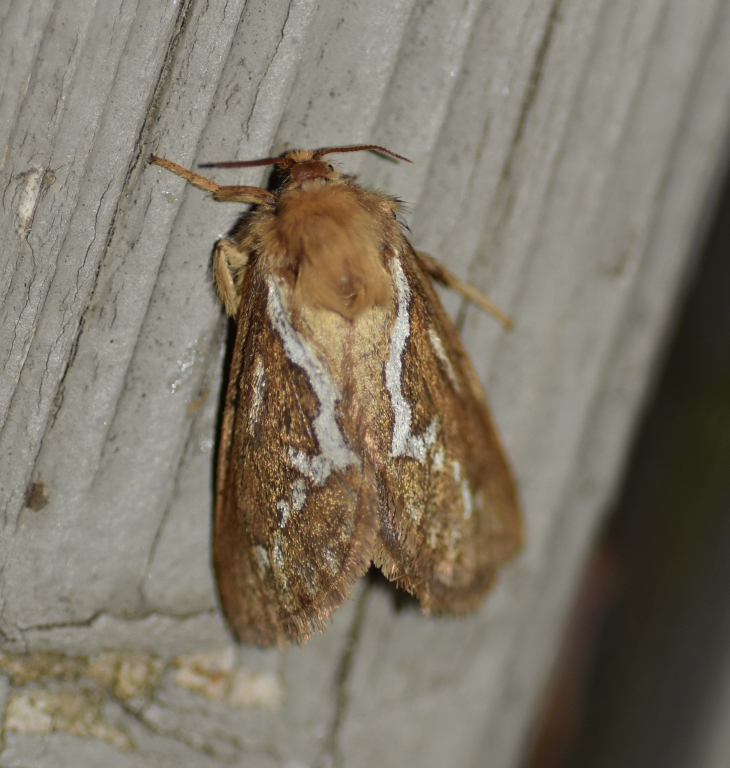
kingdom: Animalia
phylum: Arthropoda
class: Insecta
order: Lepidoptera
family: Hepialidae
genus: Korscheltellus
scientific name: Korscheltellus lupulina
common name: Common swift
